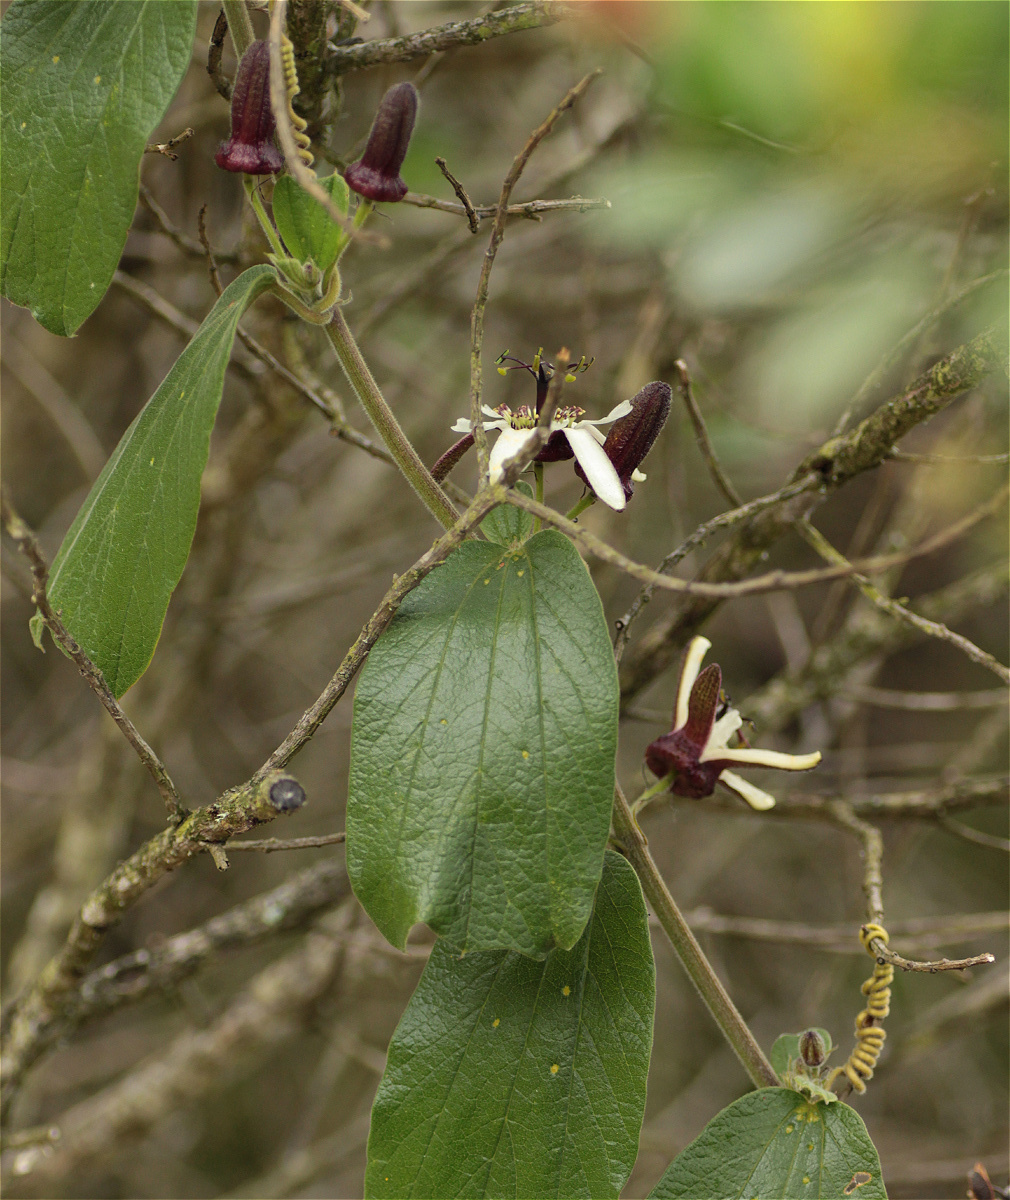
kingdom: Plantae
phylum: Tracheophyta
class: Magnoliopsida
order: Malpighiales
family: Passifloraceae
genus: Passiflora
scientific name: Passiflora bogotensis
